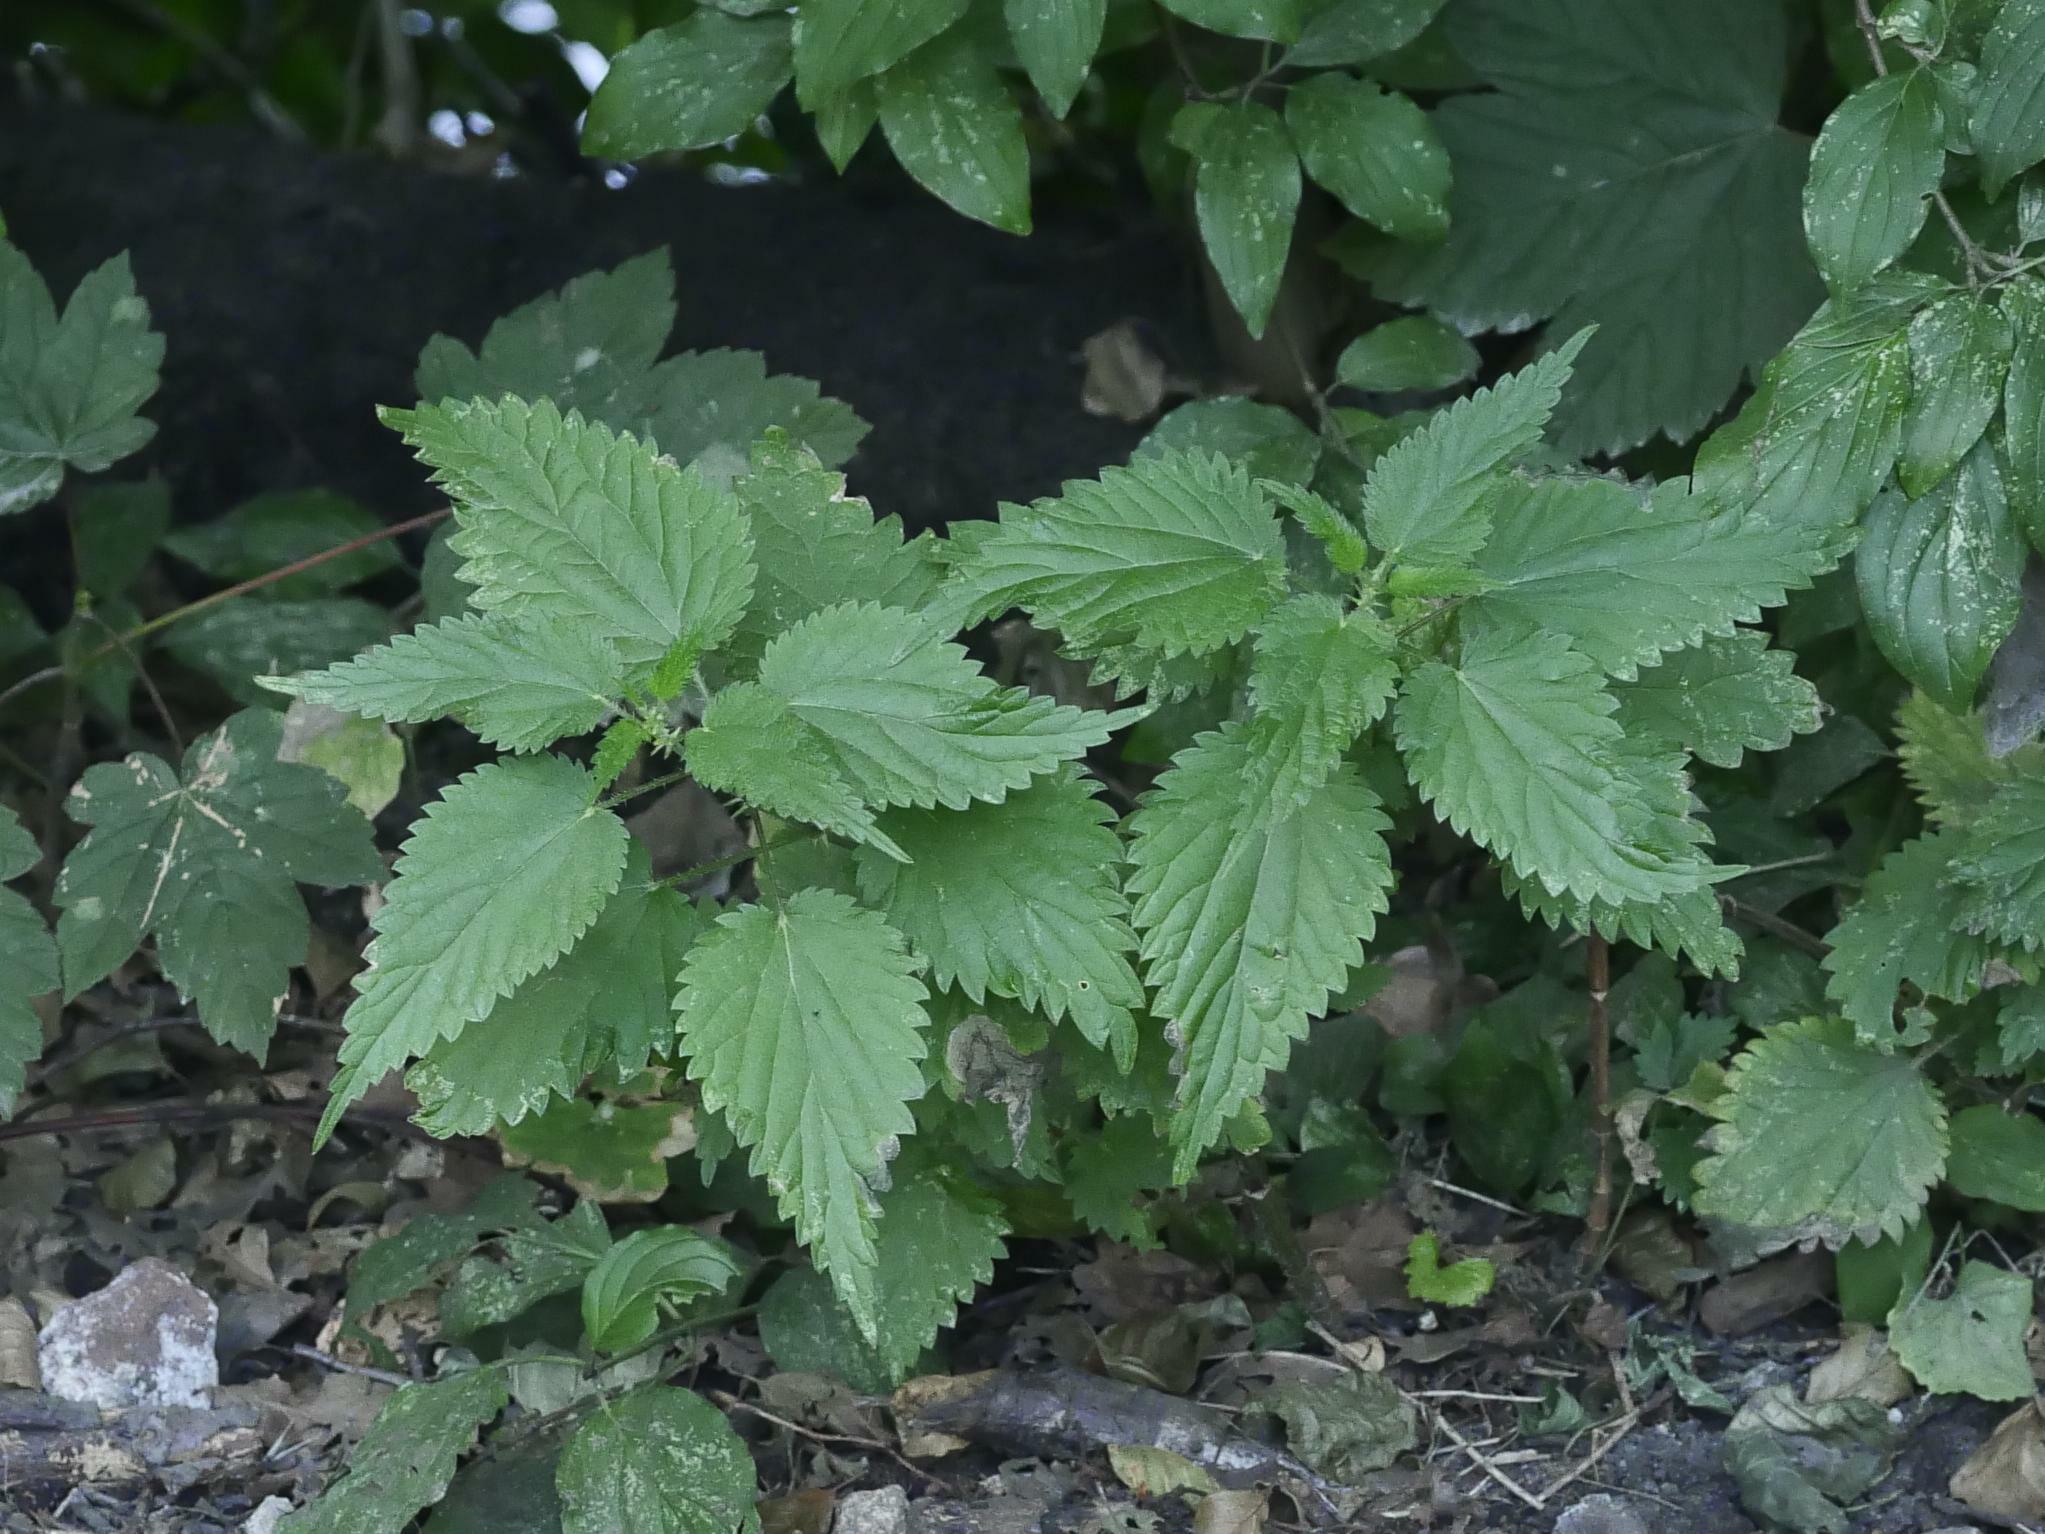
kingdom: Plantae
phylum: Tracheophyta
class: Magnoliopsida
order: Rosales
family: Urticaceae
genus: Urtica
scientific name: Urtica dioica
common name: Common nettle
